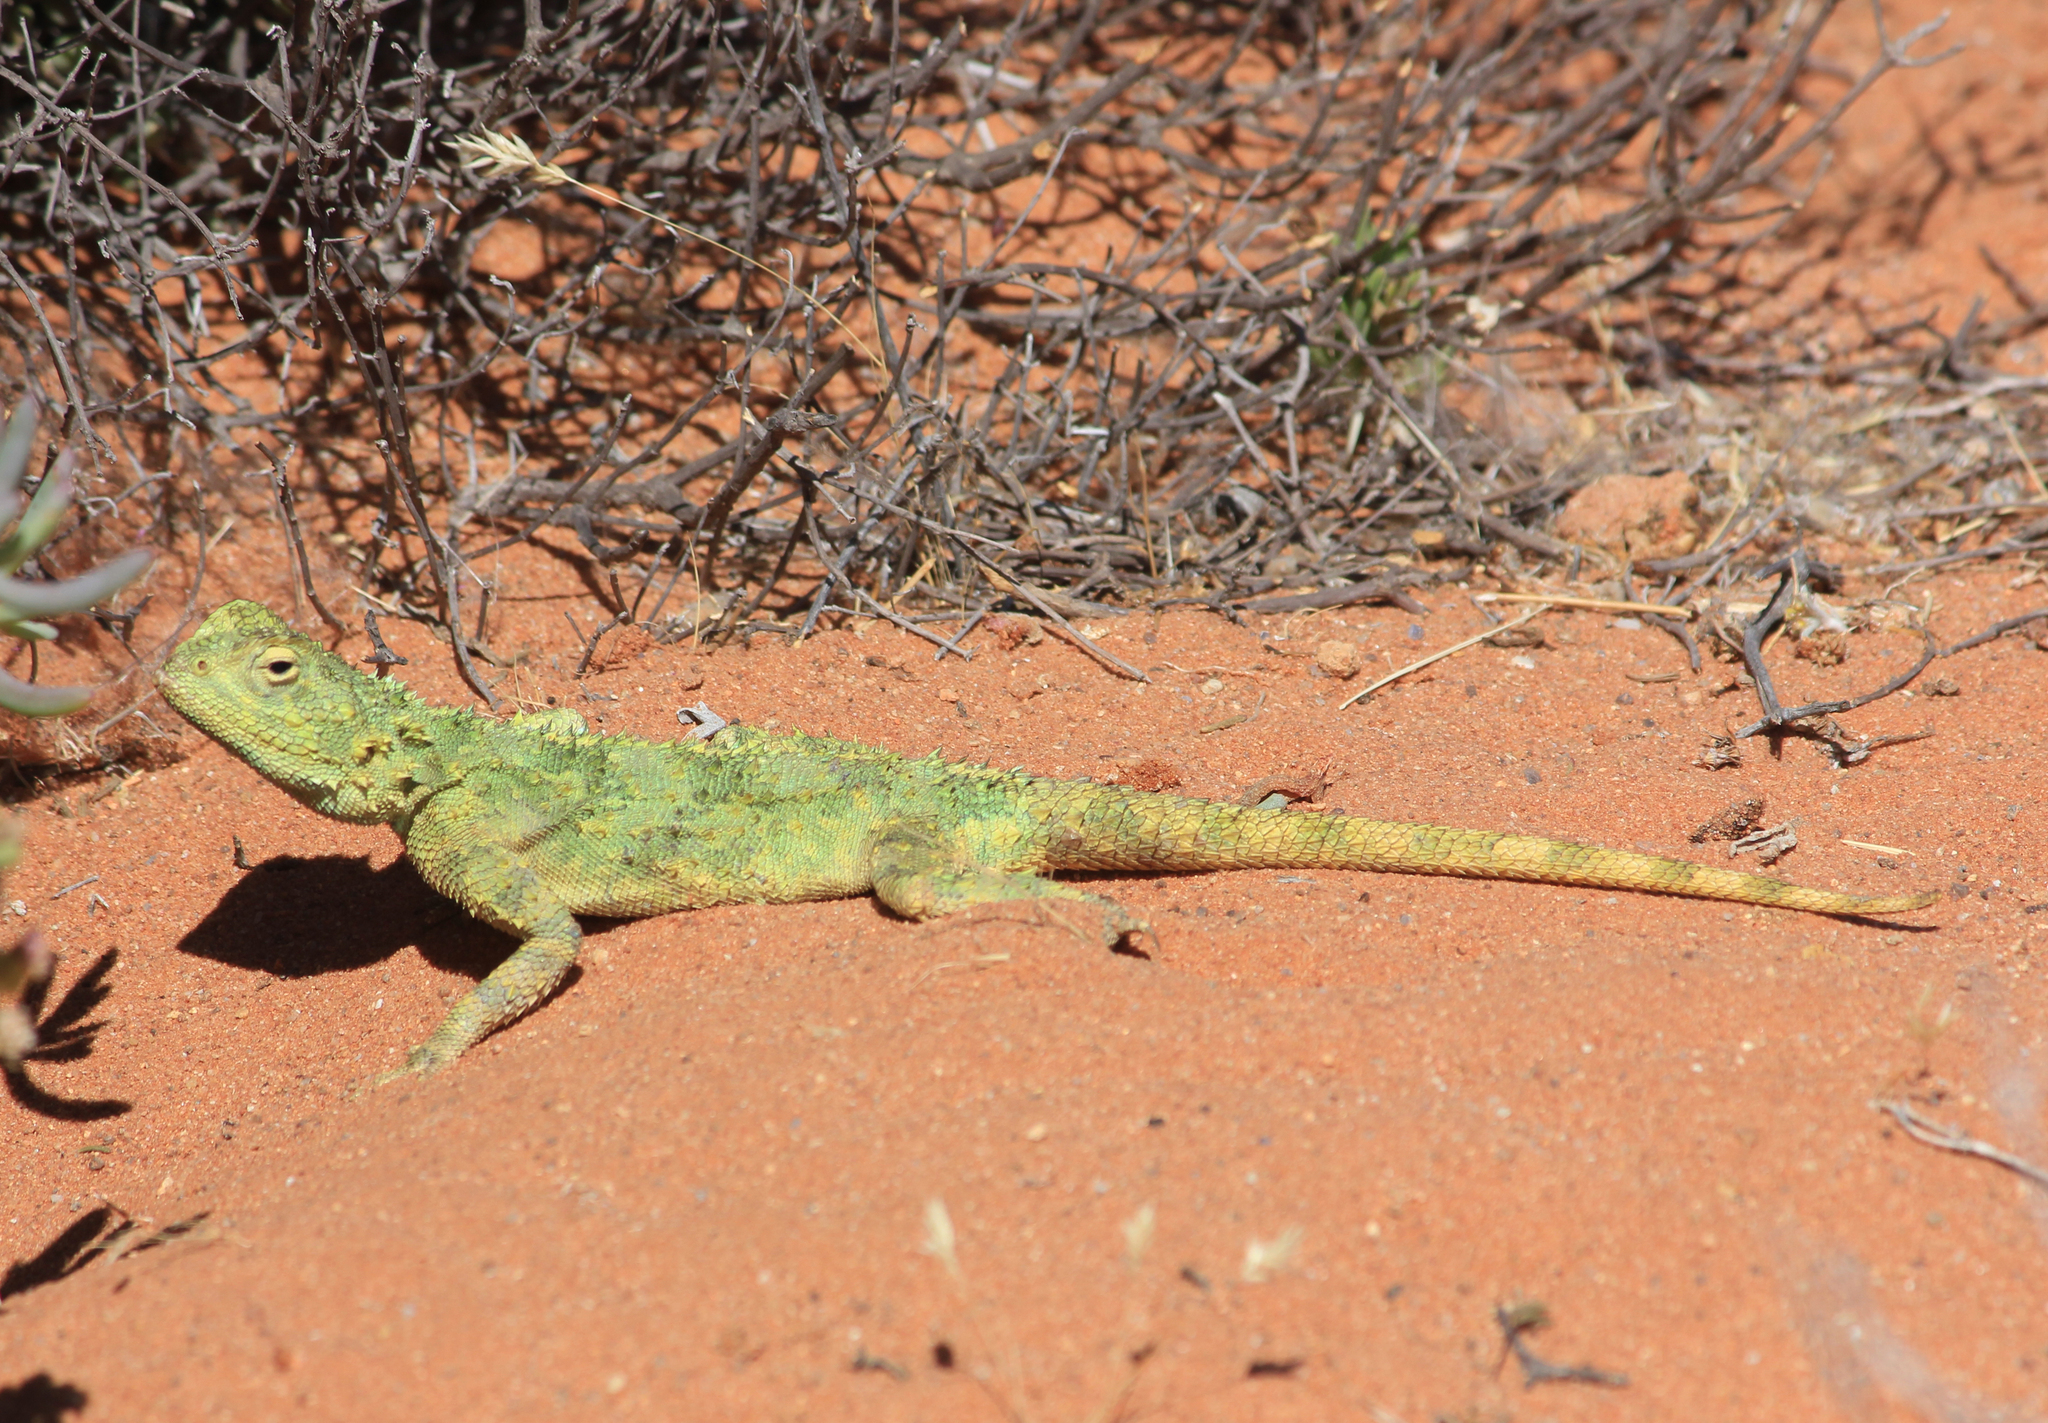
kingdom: Animalia
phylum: Chordata
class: Squamata
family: Agamidae
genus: Agama
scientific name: Agama hispida
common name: Common spiny agama
